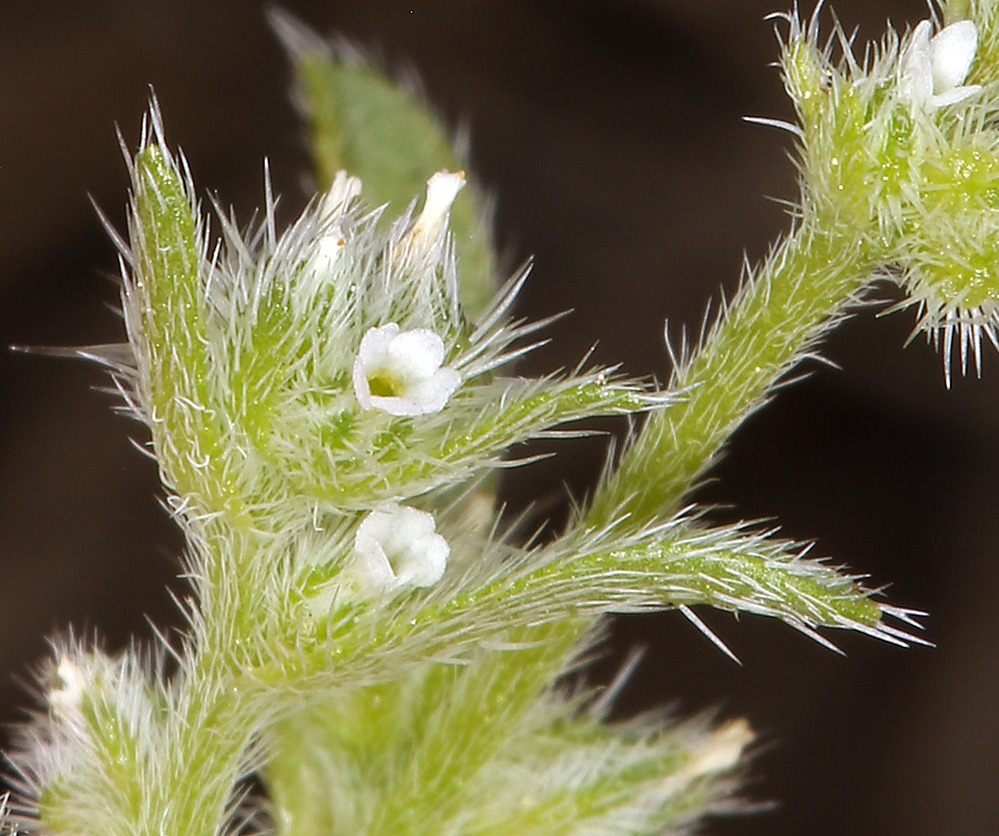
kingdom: Plantae
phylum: Tracheophyta
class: Magnoliopsida
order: Boraginales
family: Boraginaceae
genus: Cryptantha
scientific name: Cryptantha glomeriflora
